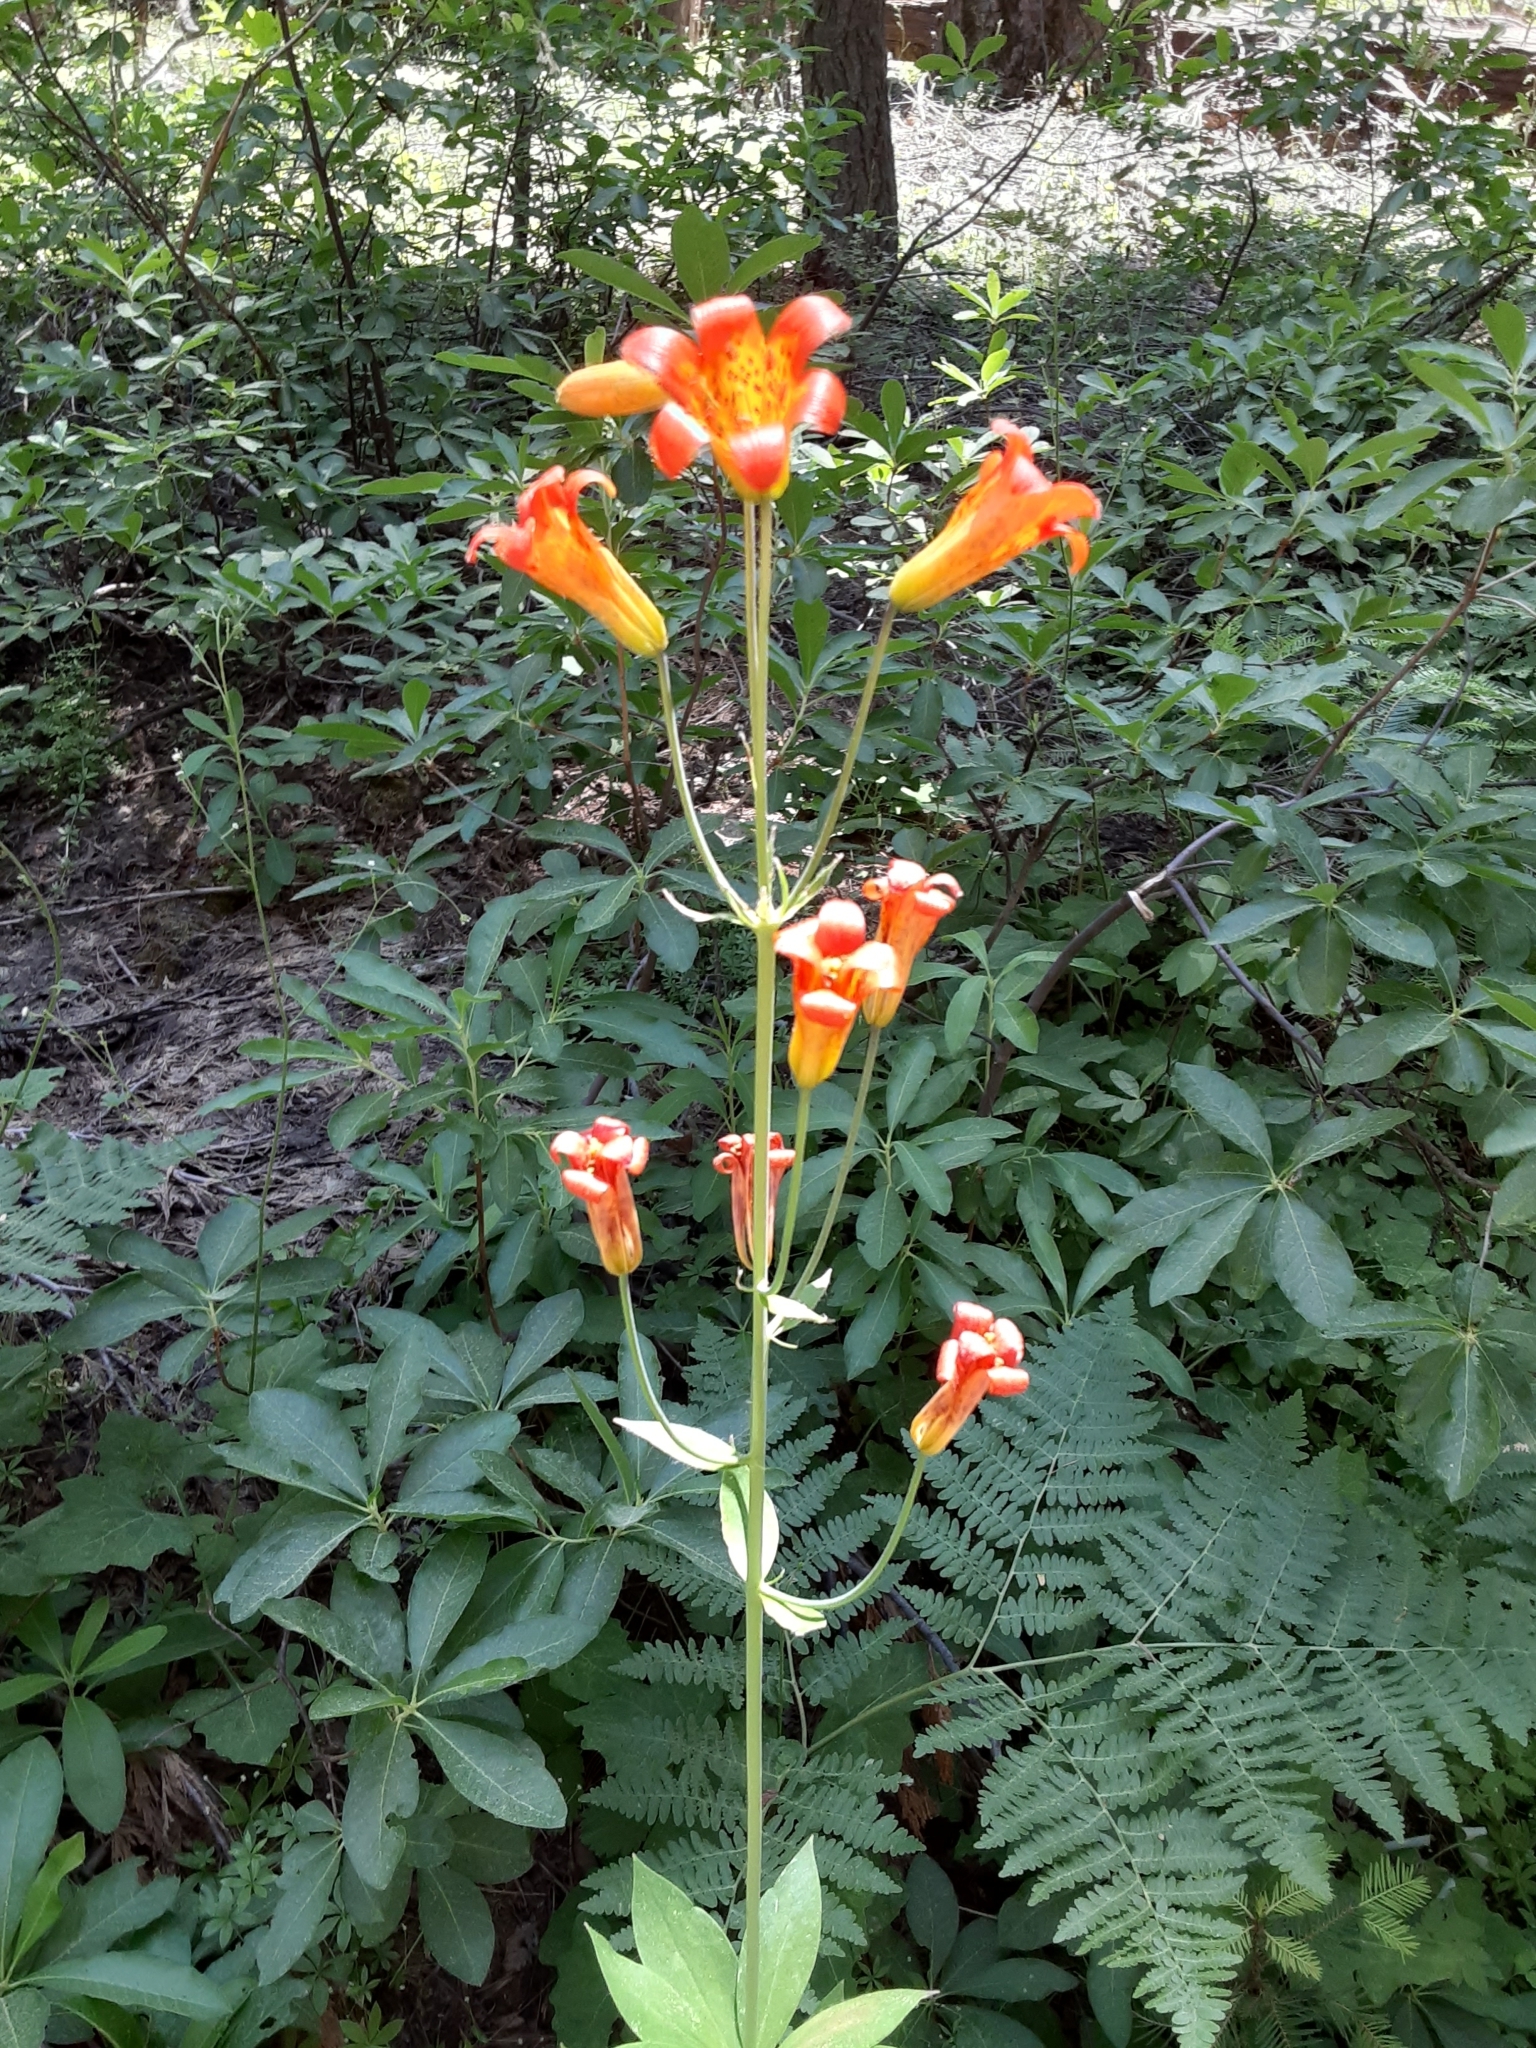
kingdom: Plantae
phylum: Tracheophyta
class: Liliopsida
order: Liliales
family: Liliaceae
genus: Lilium
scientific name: Lilium parvum
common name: Alpine lily
